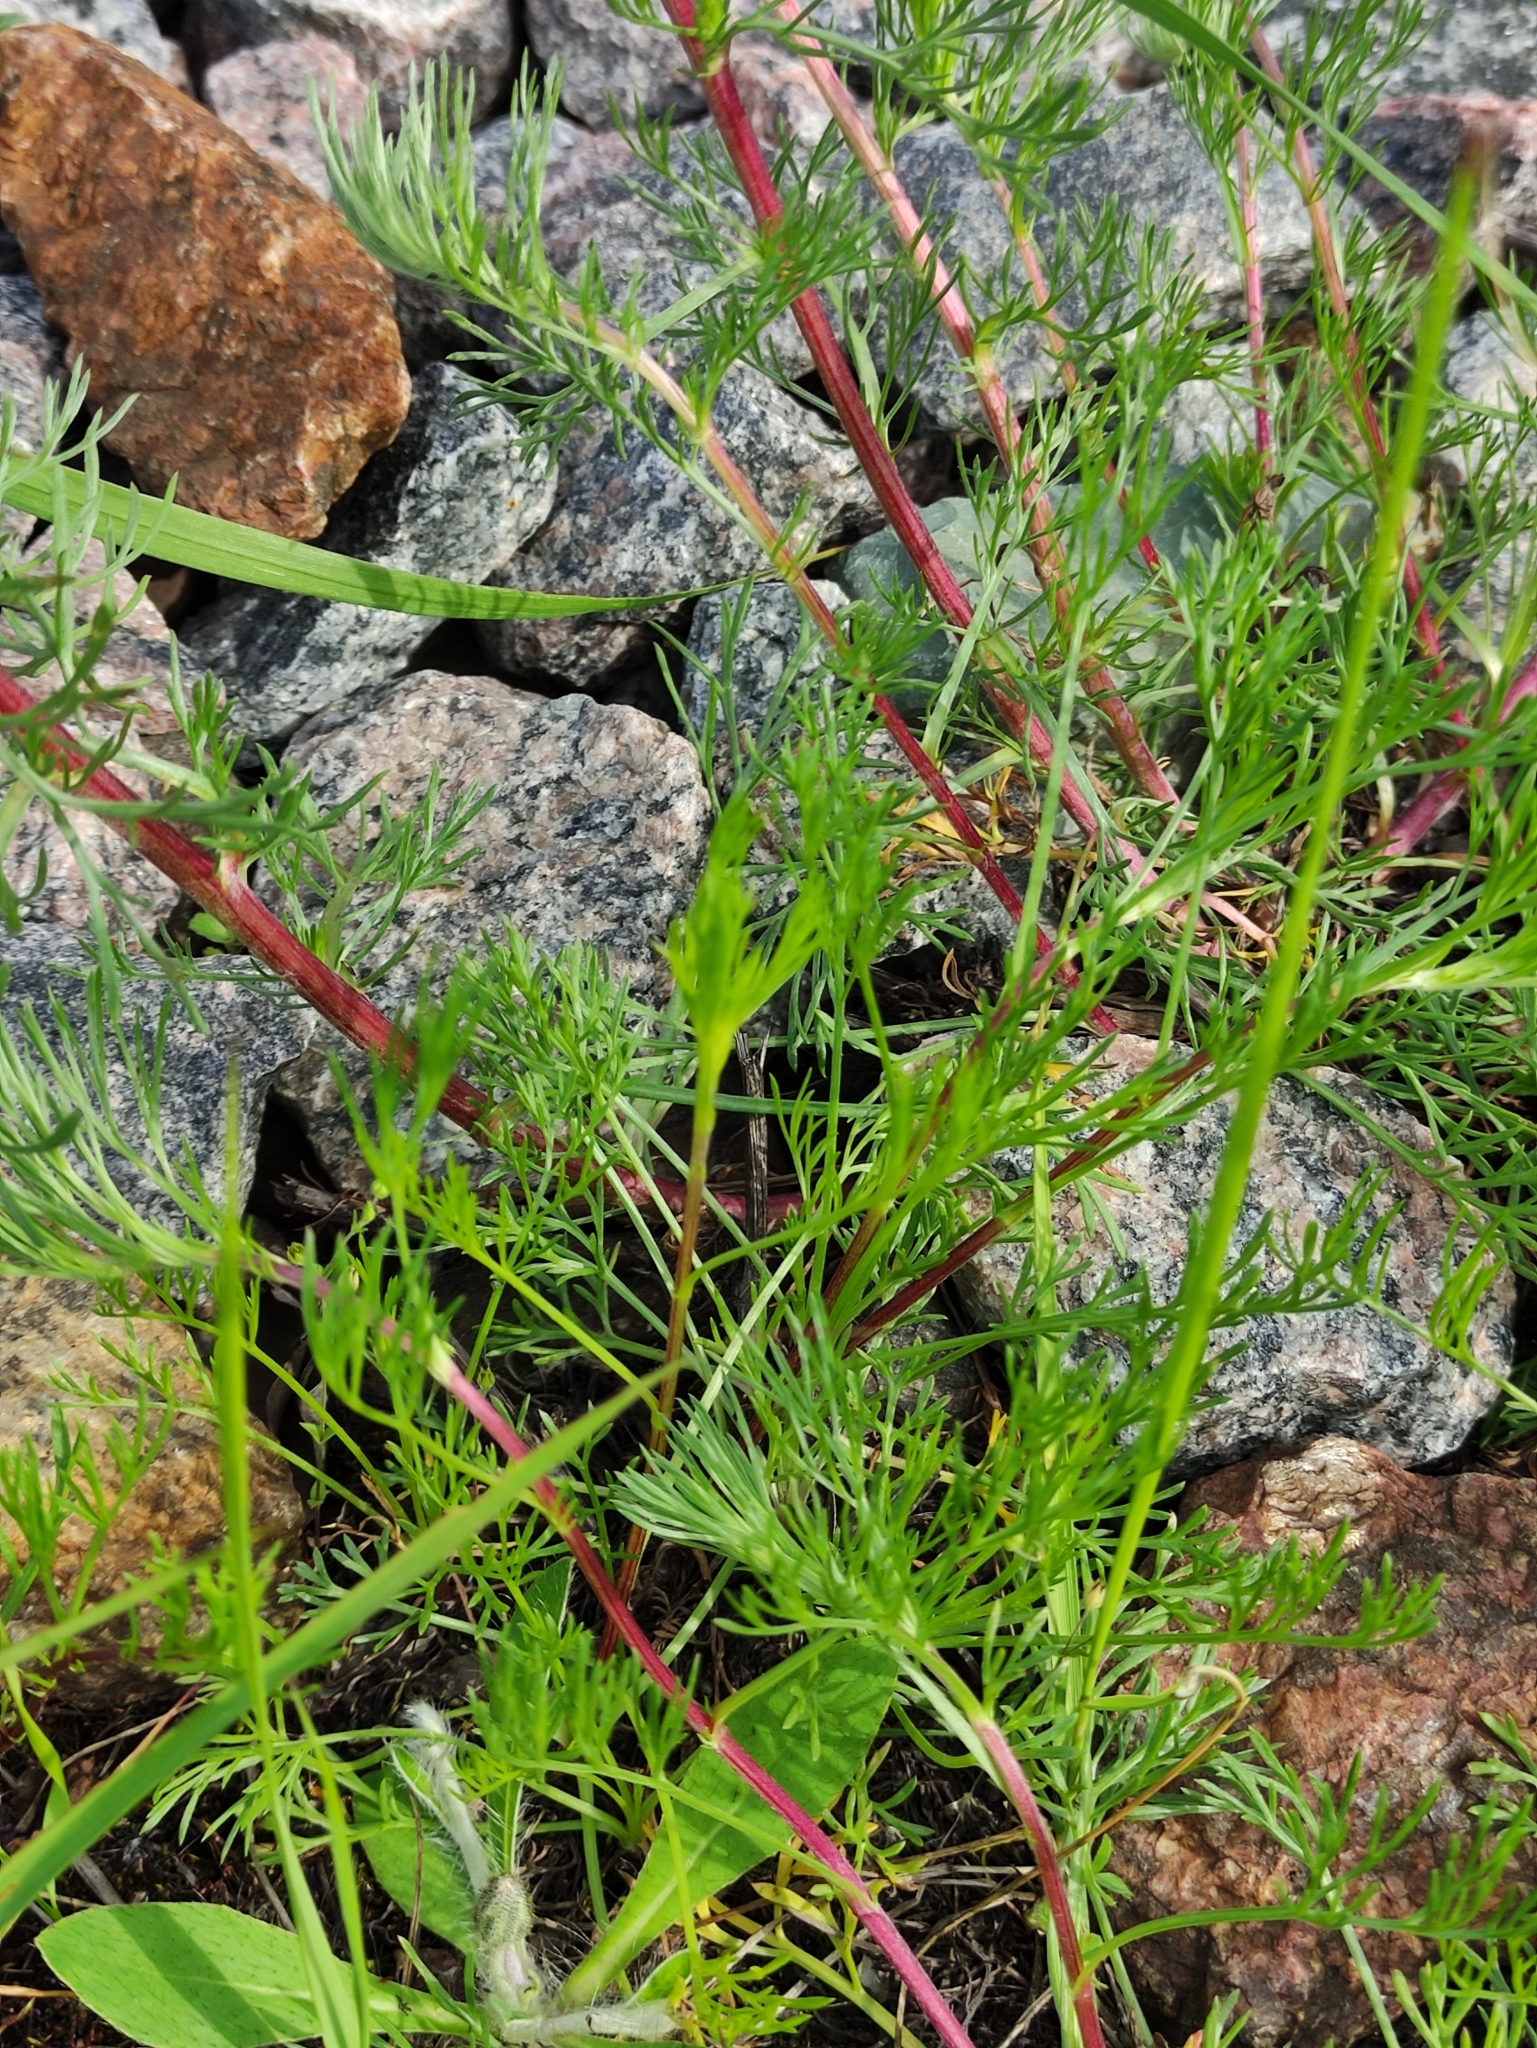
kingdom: Plantae
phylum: Tracheophyta
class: Magnoliopsida
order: Asterales
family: Asteraceae
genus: Artemisia
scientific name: Artemisia campestris
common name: Field wormwood
